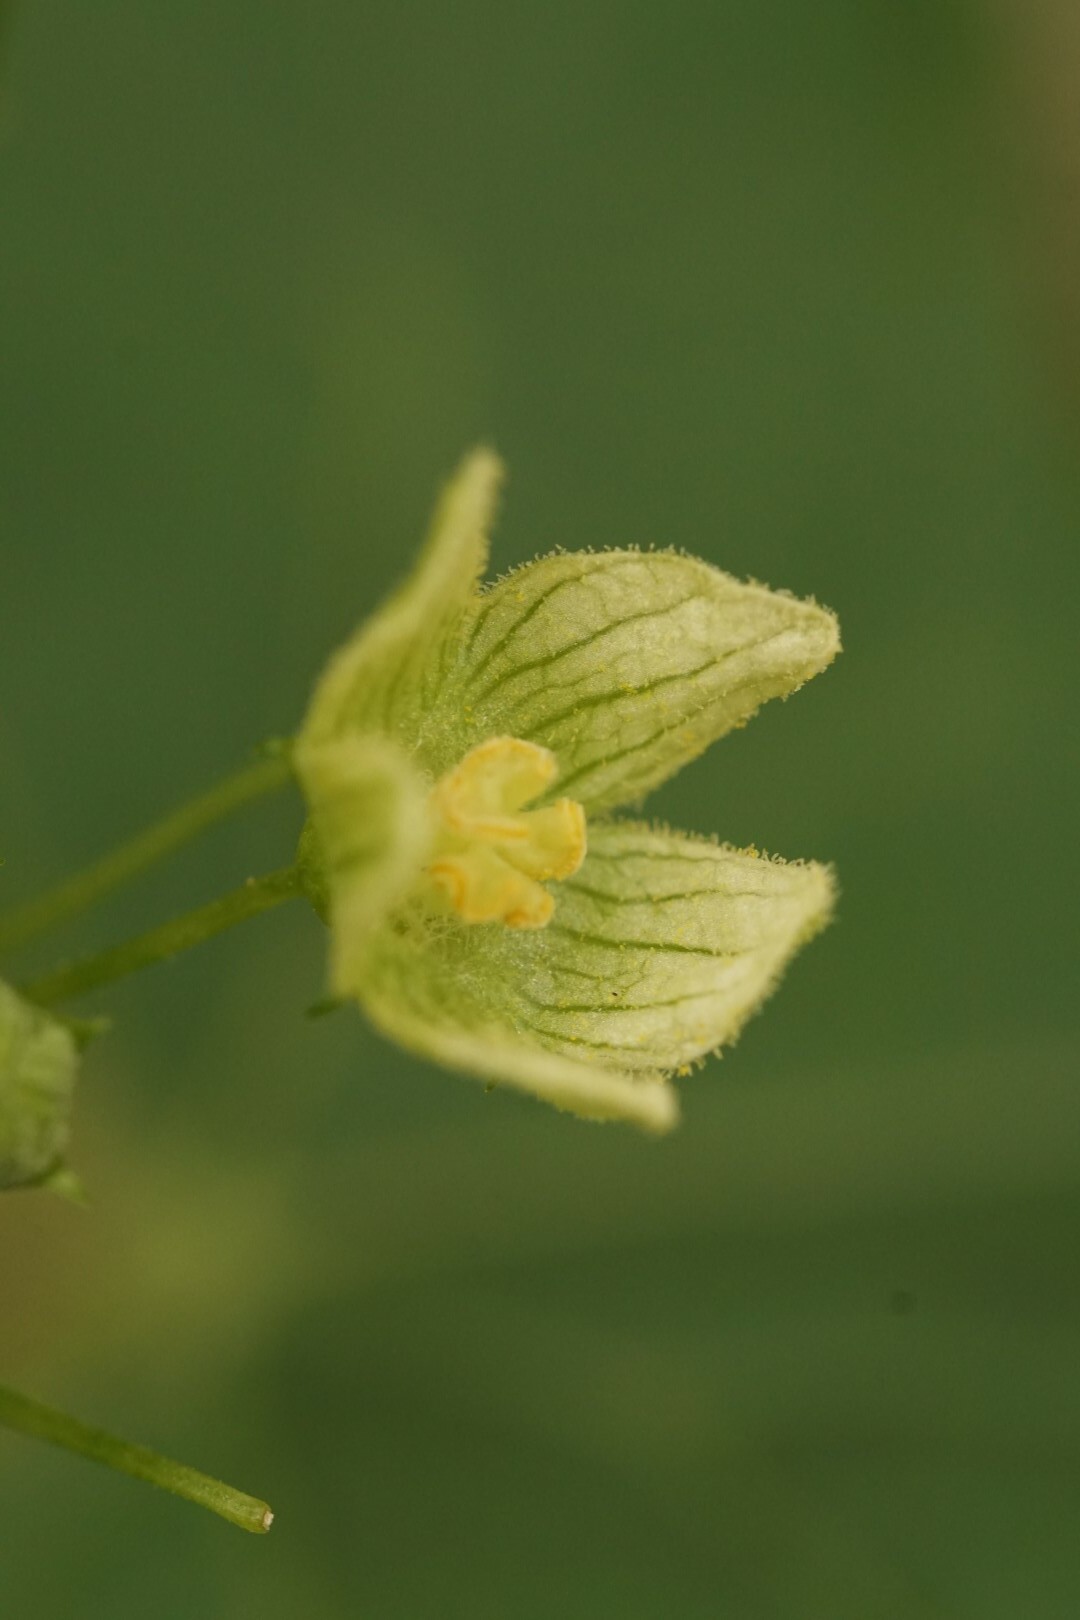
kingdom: Plantae
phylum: Tracheophyta
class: Magnoliopsida
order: Cucurbitales
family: Cucurbitaceae
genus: Bryonia
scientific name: Bryonia dioica
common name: White bryony
